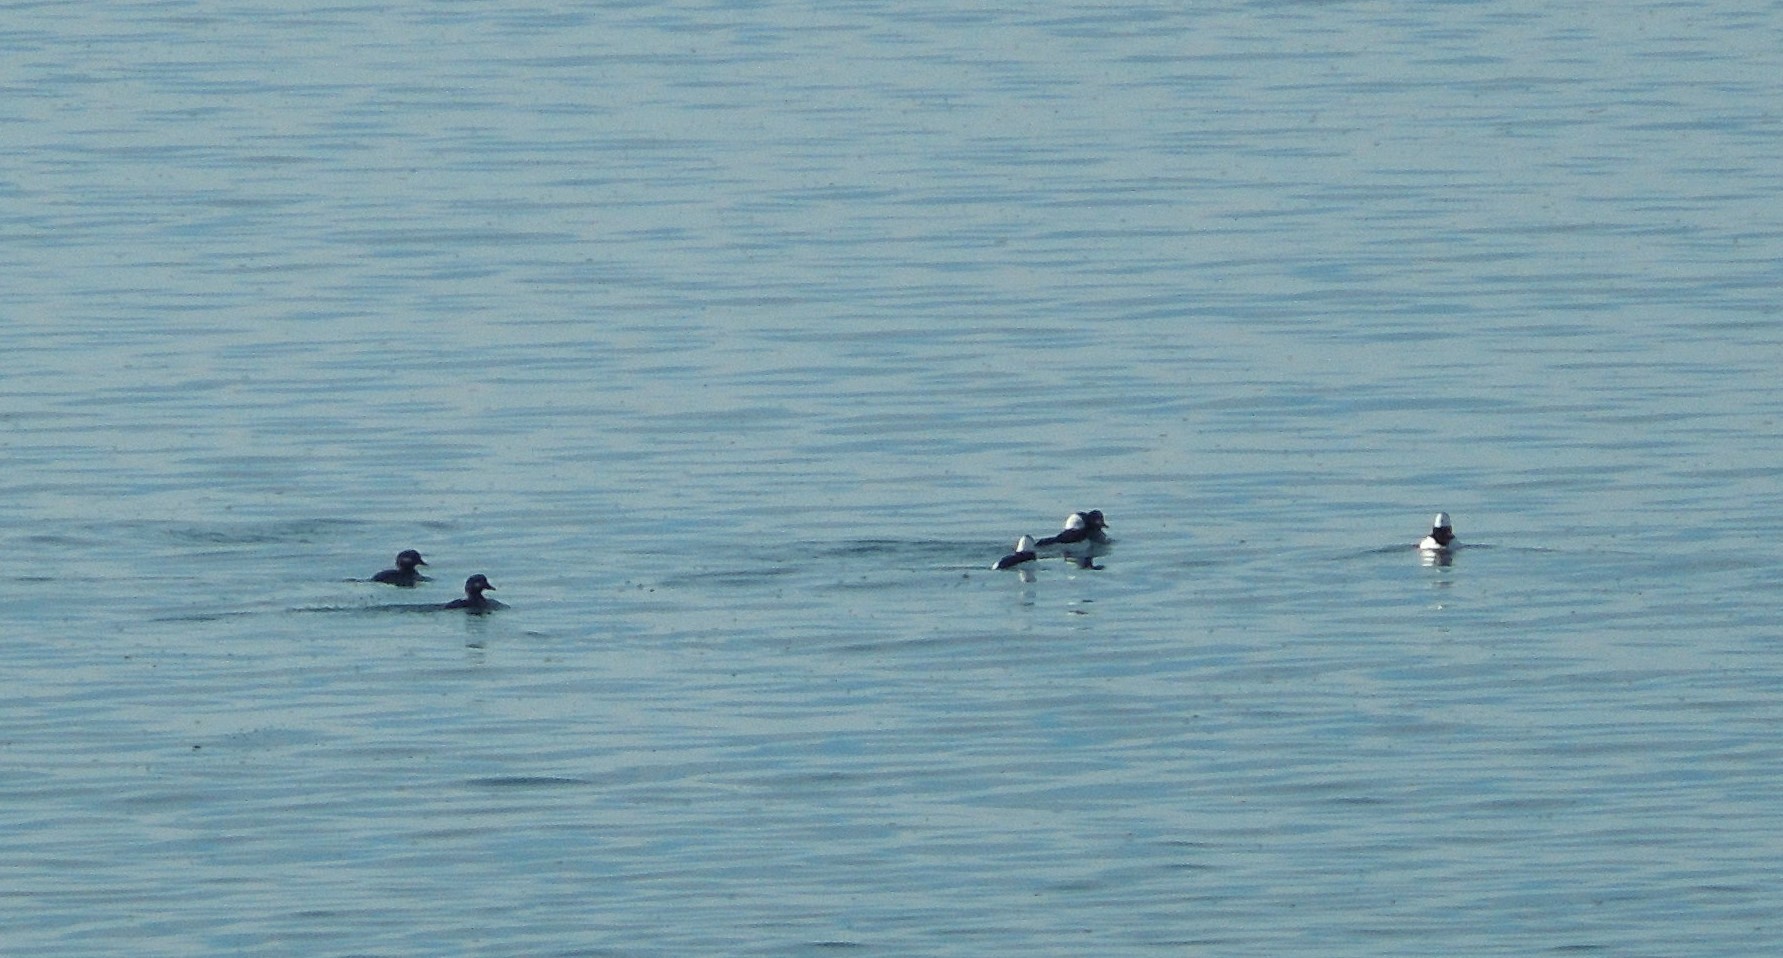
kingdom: Animalia
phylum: Chordata
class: Aves
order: Anseriformes
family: Anatidae
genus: Bucephala
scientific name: Bucephala albeola
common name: Bufflehead
